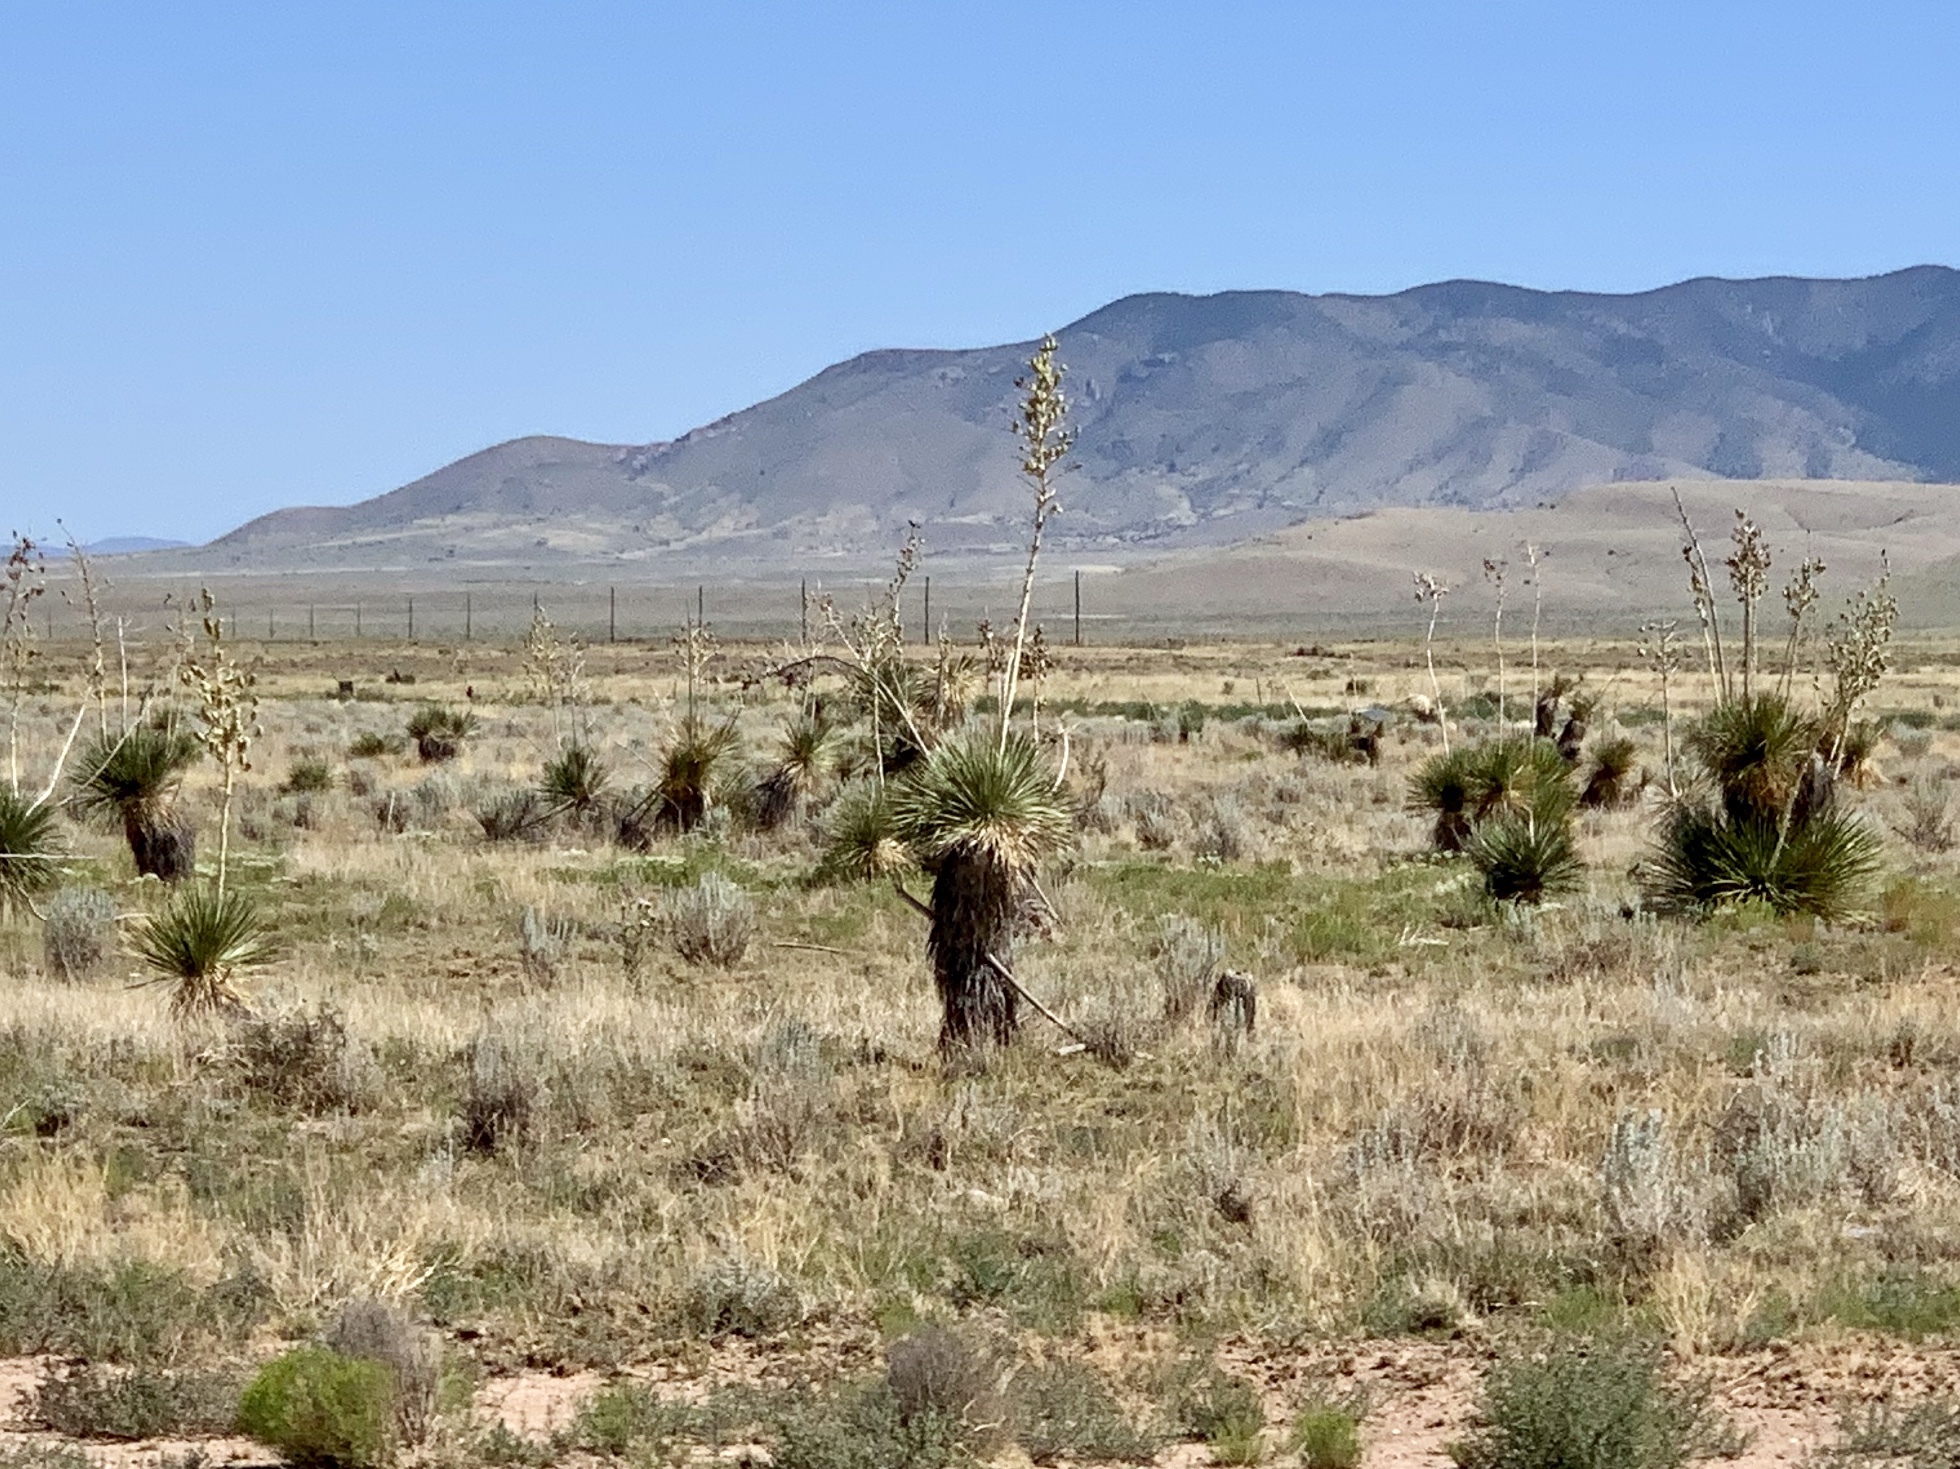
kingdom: Plantae
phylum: Tracheophyta
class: Liliopsida
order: Asparagales
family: Asparagaceae
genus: Yucca
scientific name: Yucca elata
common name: Palmella
